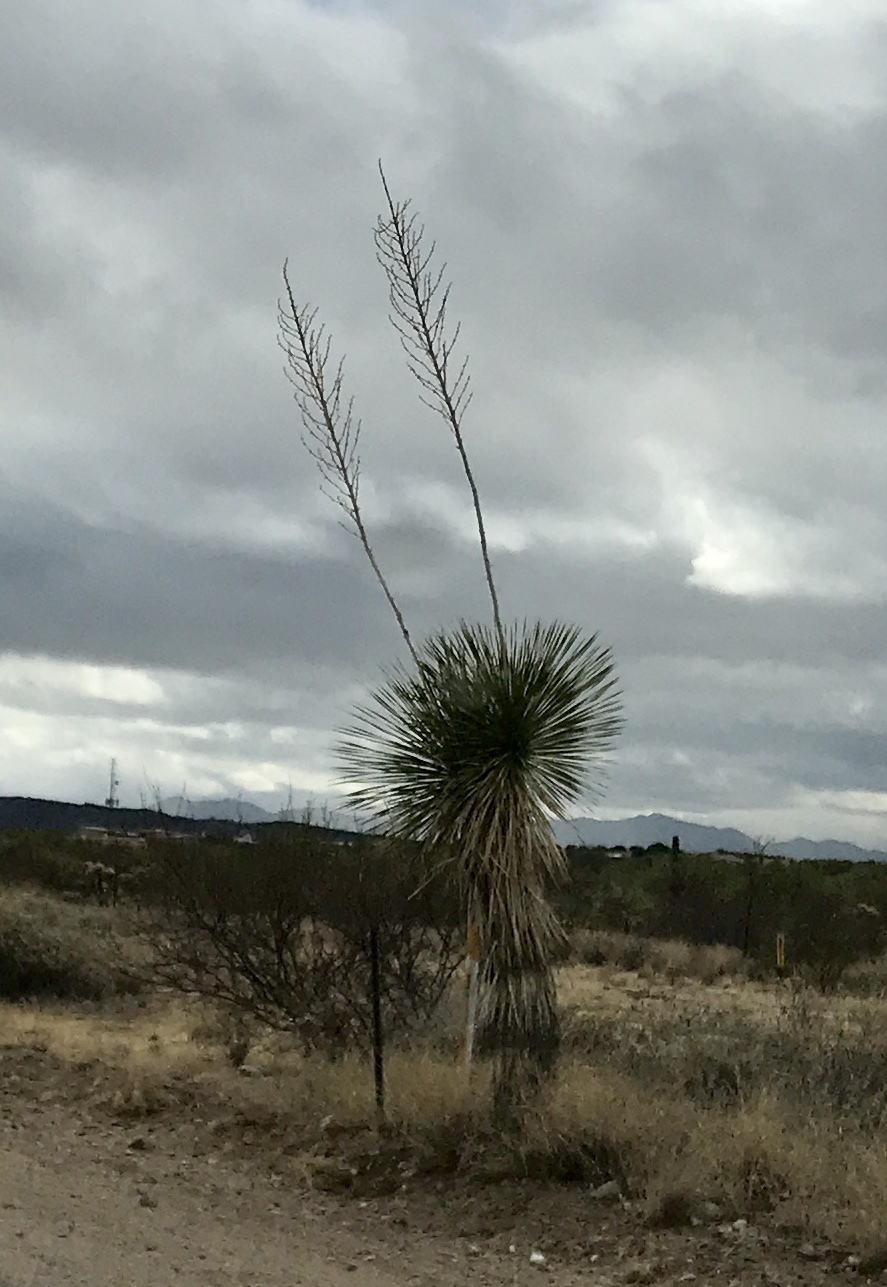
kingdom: Plantae
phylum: Tracheophyta
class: Liliopsida
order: Asparagales
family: Asparagaceae
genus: Yucca
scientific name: Yucca elata
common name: Palmella
